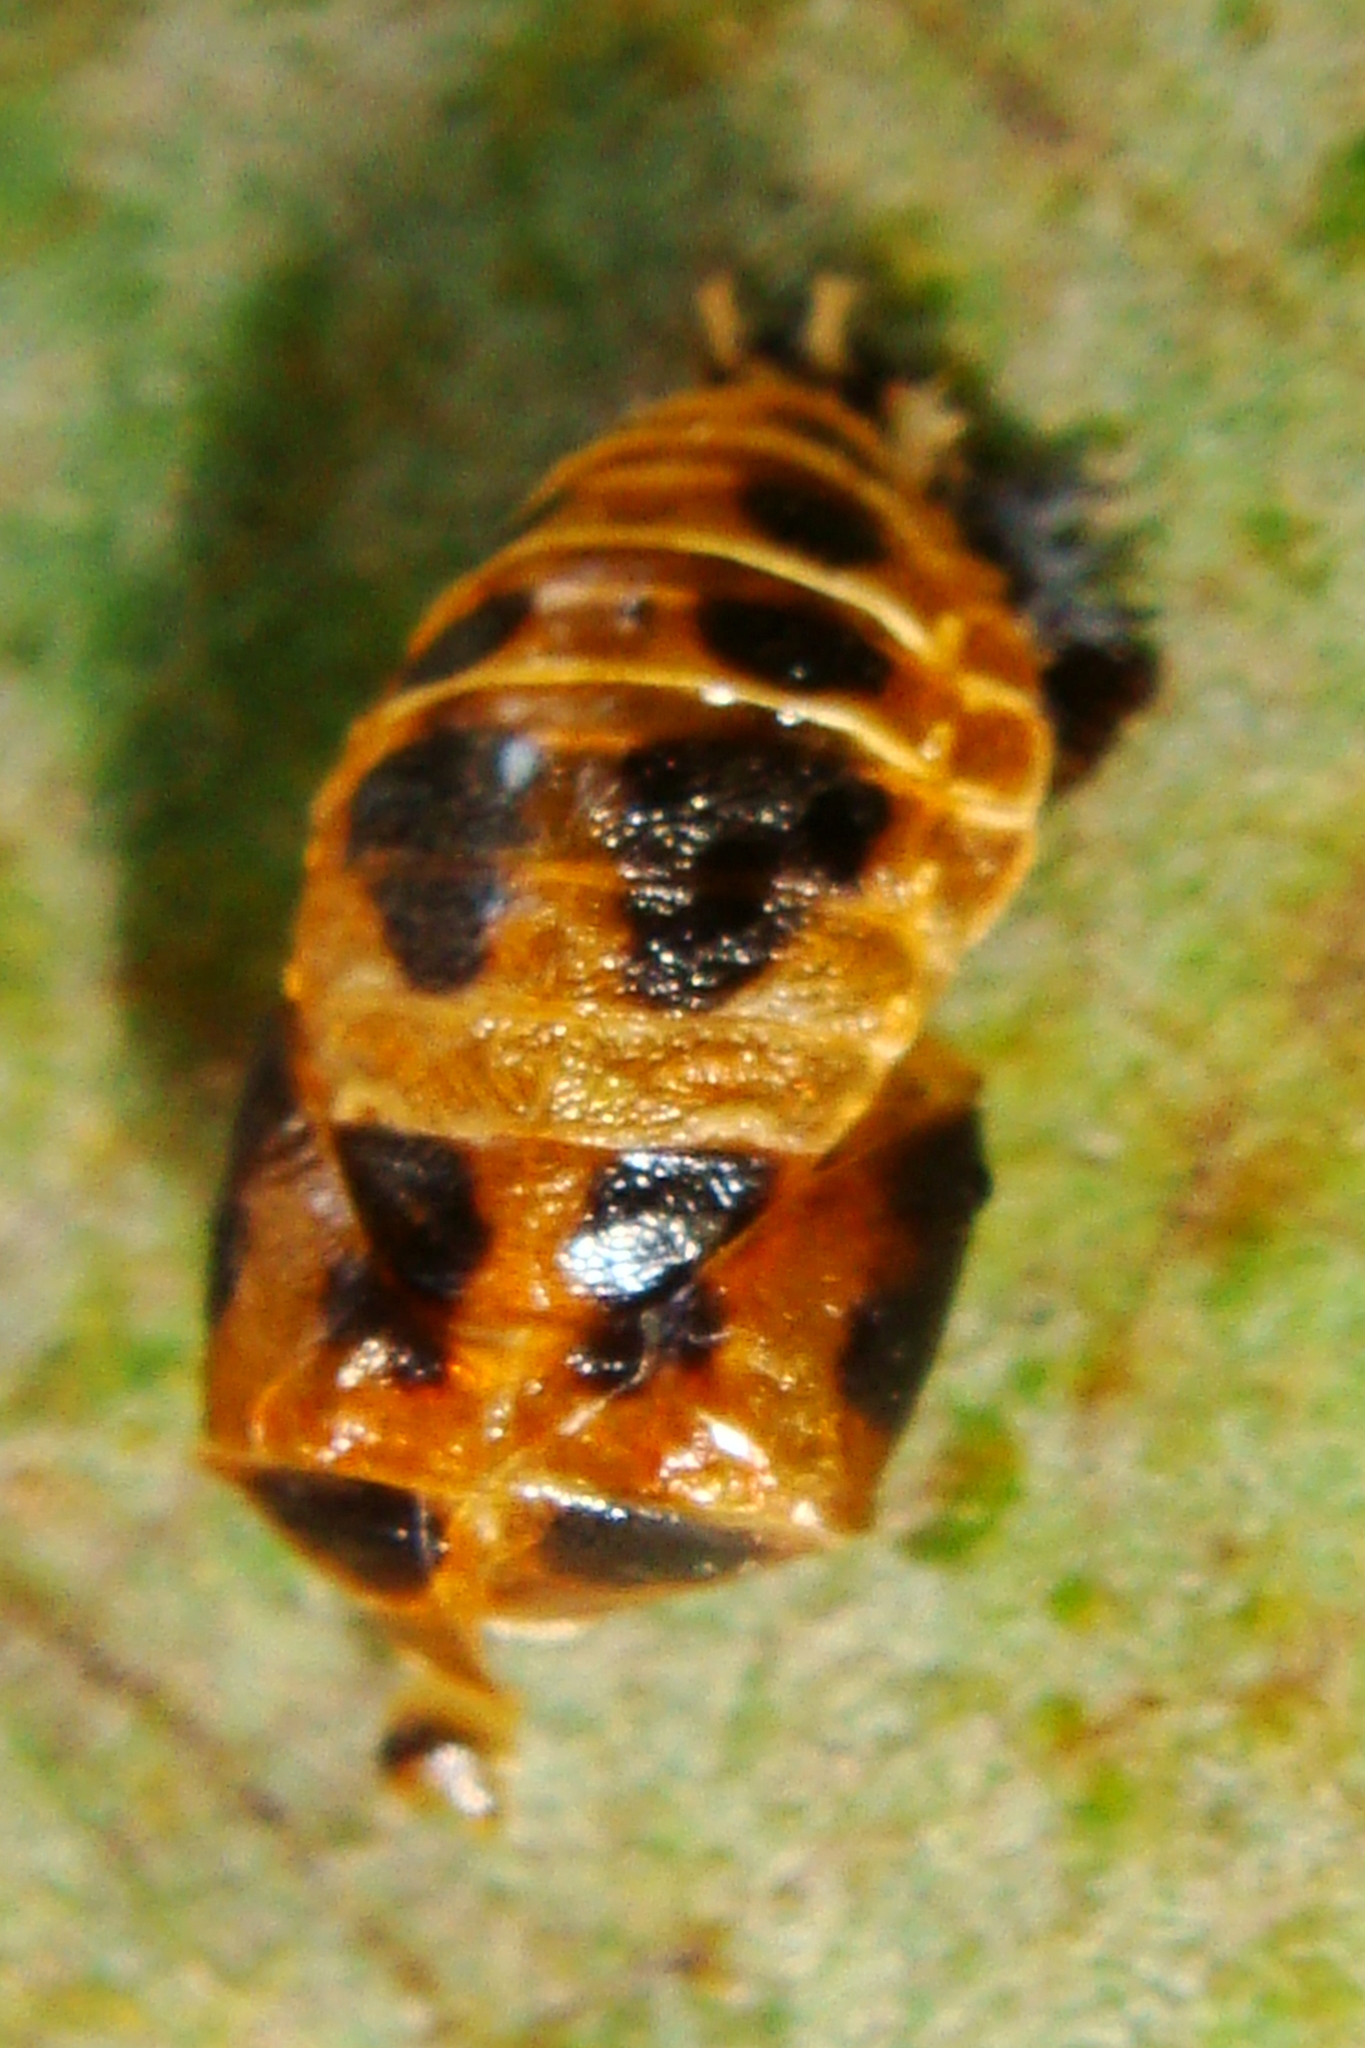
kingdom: Animalia
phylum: Arthropoda
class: Insecta
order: Coleoptera
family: Coccinellidae
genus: Harmonia
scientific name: Harmonia axyridis
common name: Harlequin ladybird
